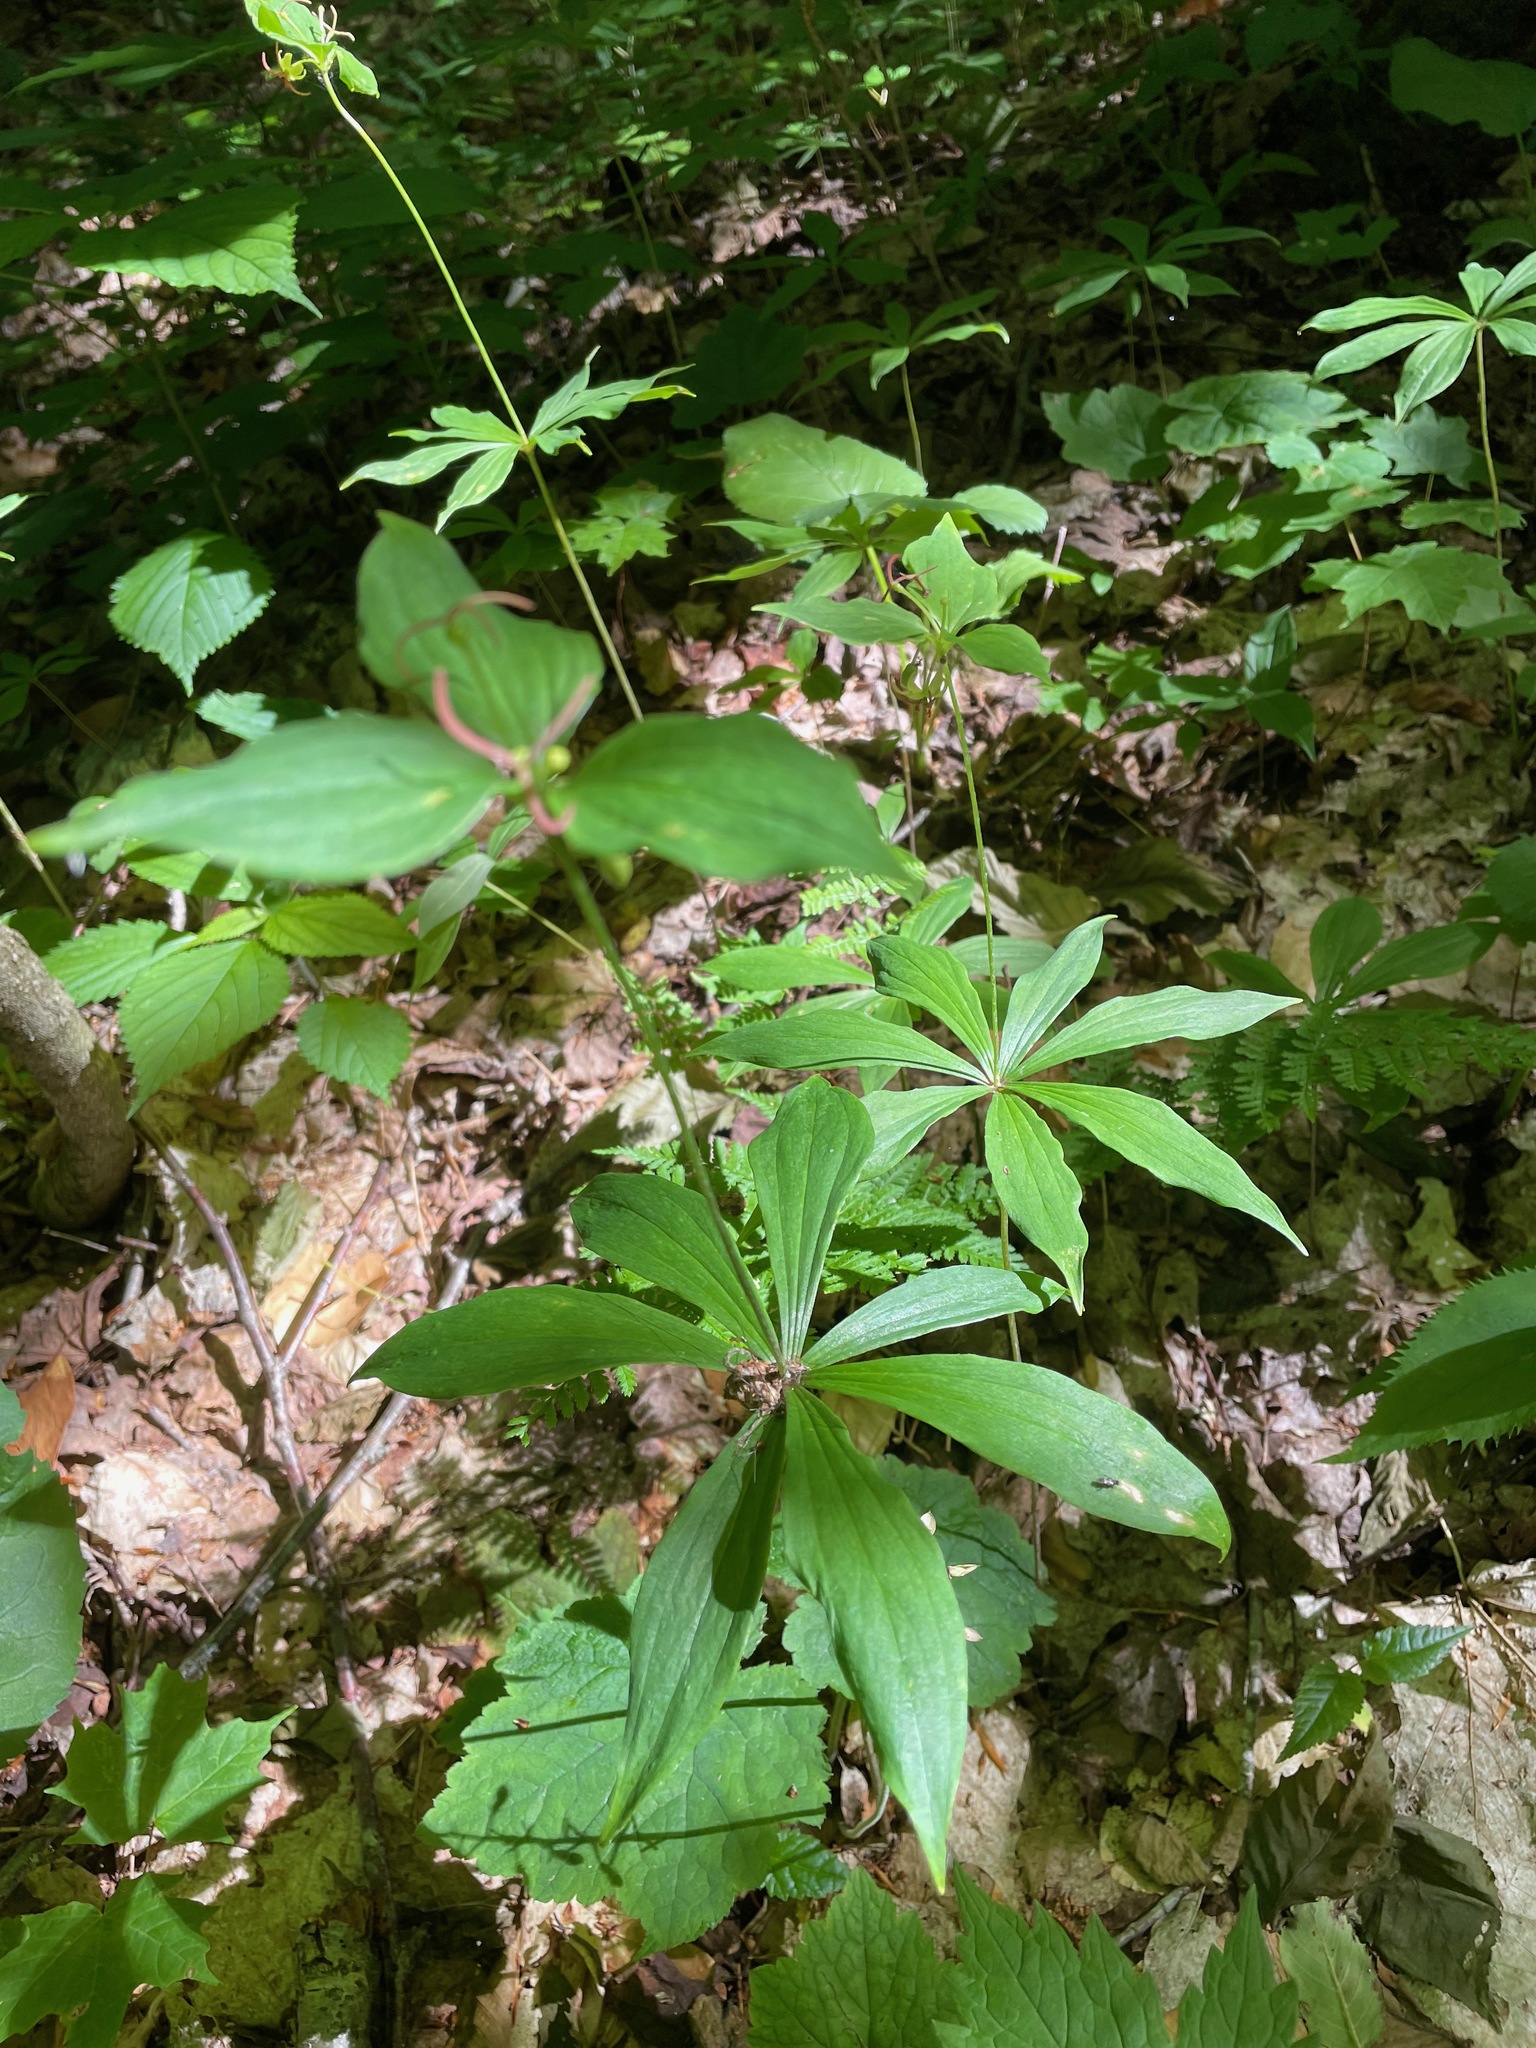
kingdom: Plantae
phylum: Tracheophyta
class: Liliopsida
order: Liliales
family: Liliaceae
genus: Medeola
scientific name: Medeola virginiana
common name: Indian cucumber-root
